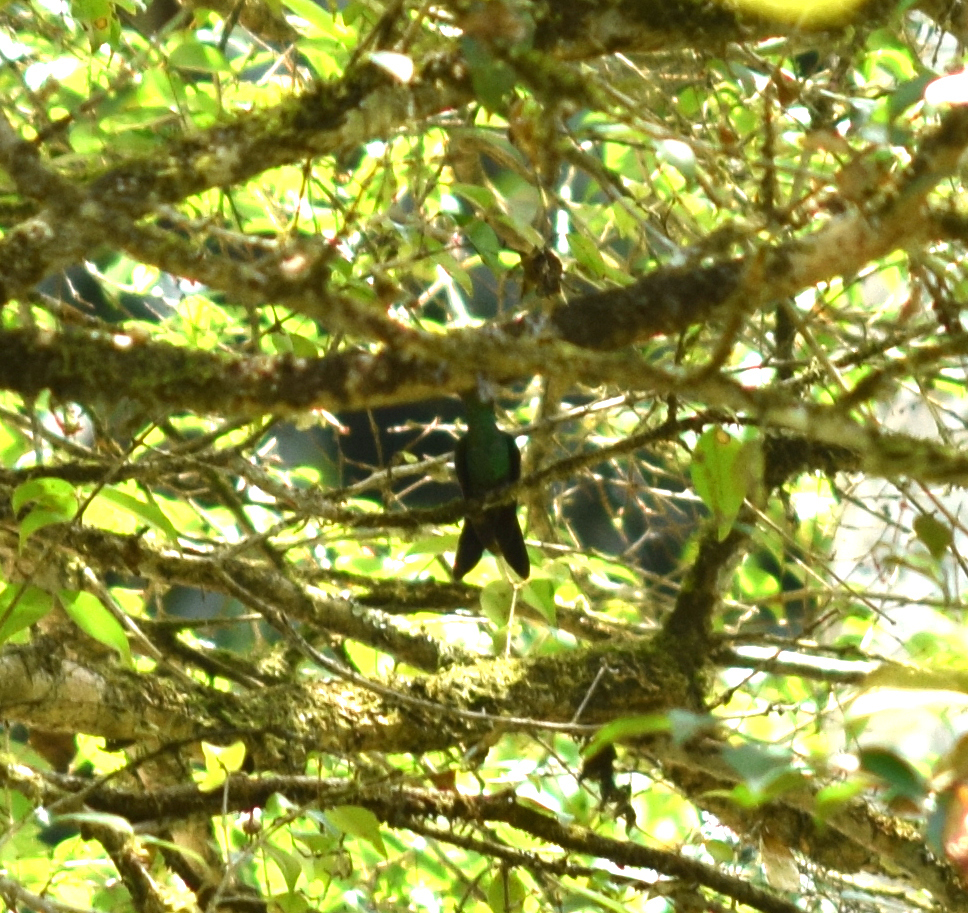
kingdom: Animalia
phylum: Chordata
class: Aves
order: Apodiformes
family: Trochilidae
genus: Thalurania
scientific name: Thalurania glaucopis
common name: Violet-capped woodnymph
